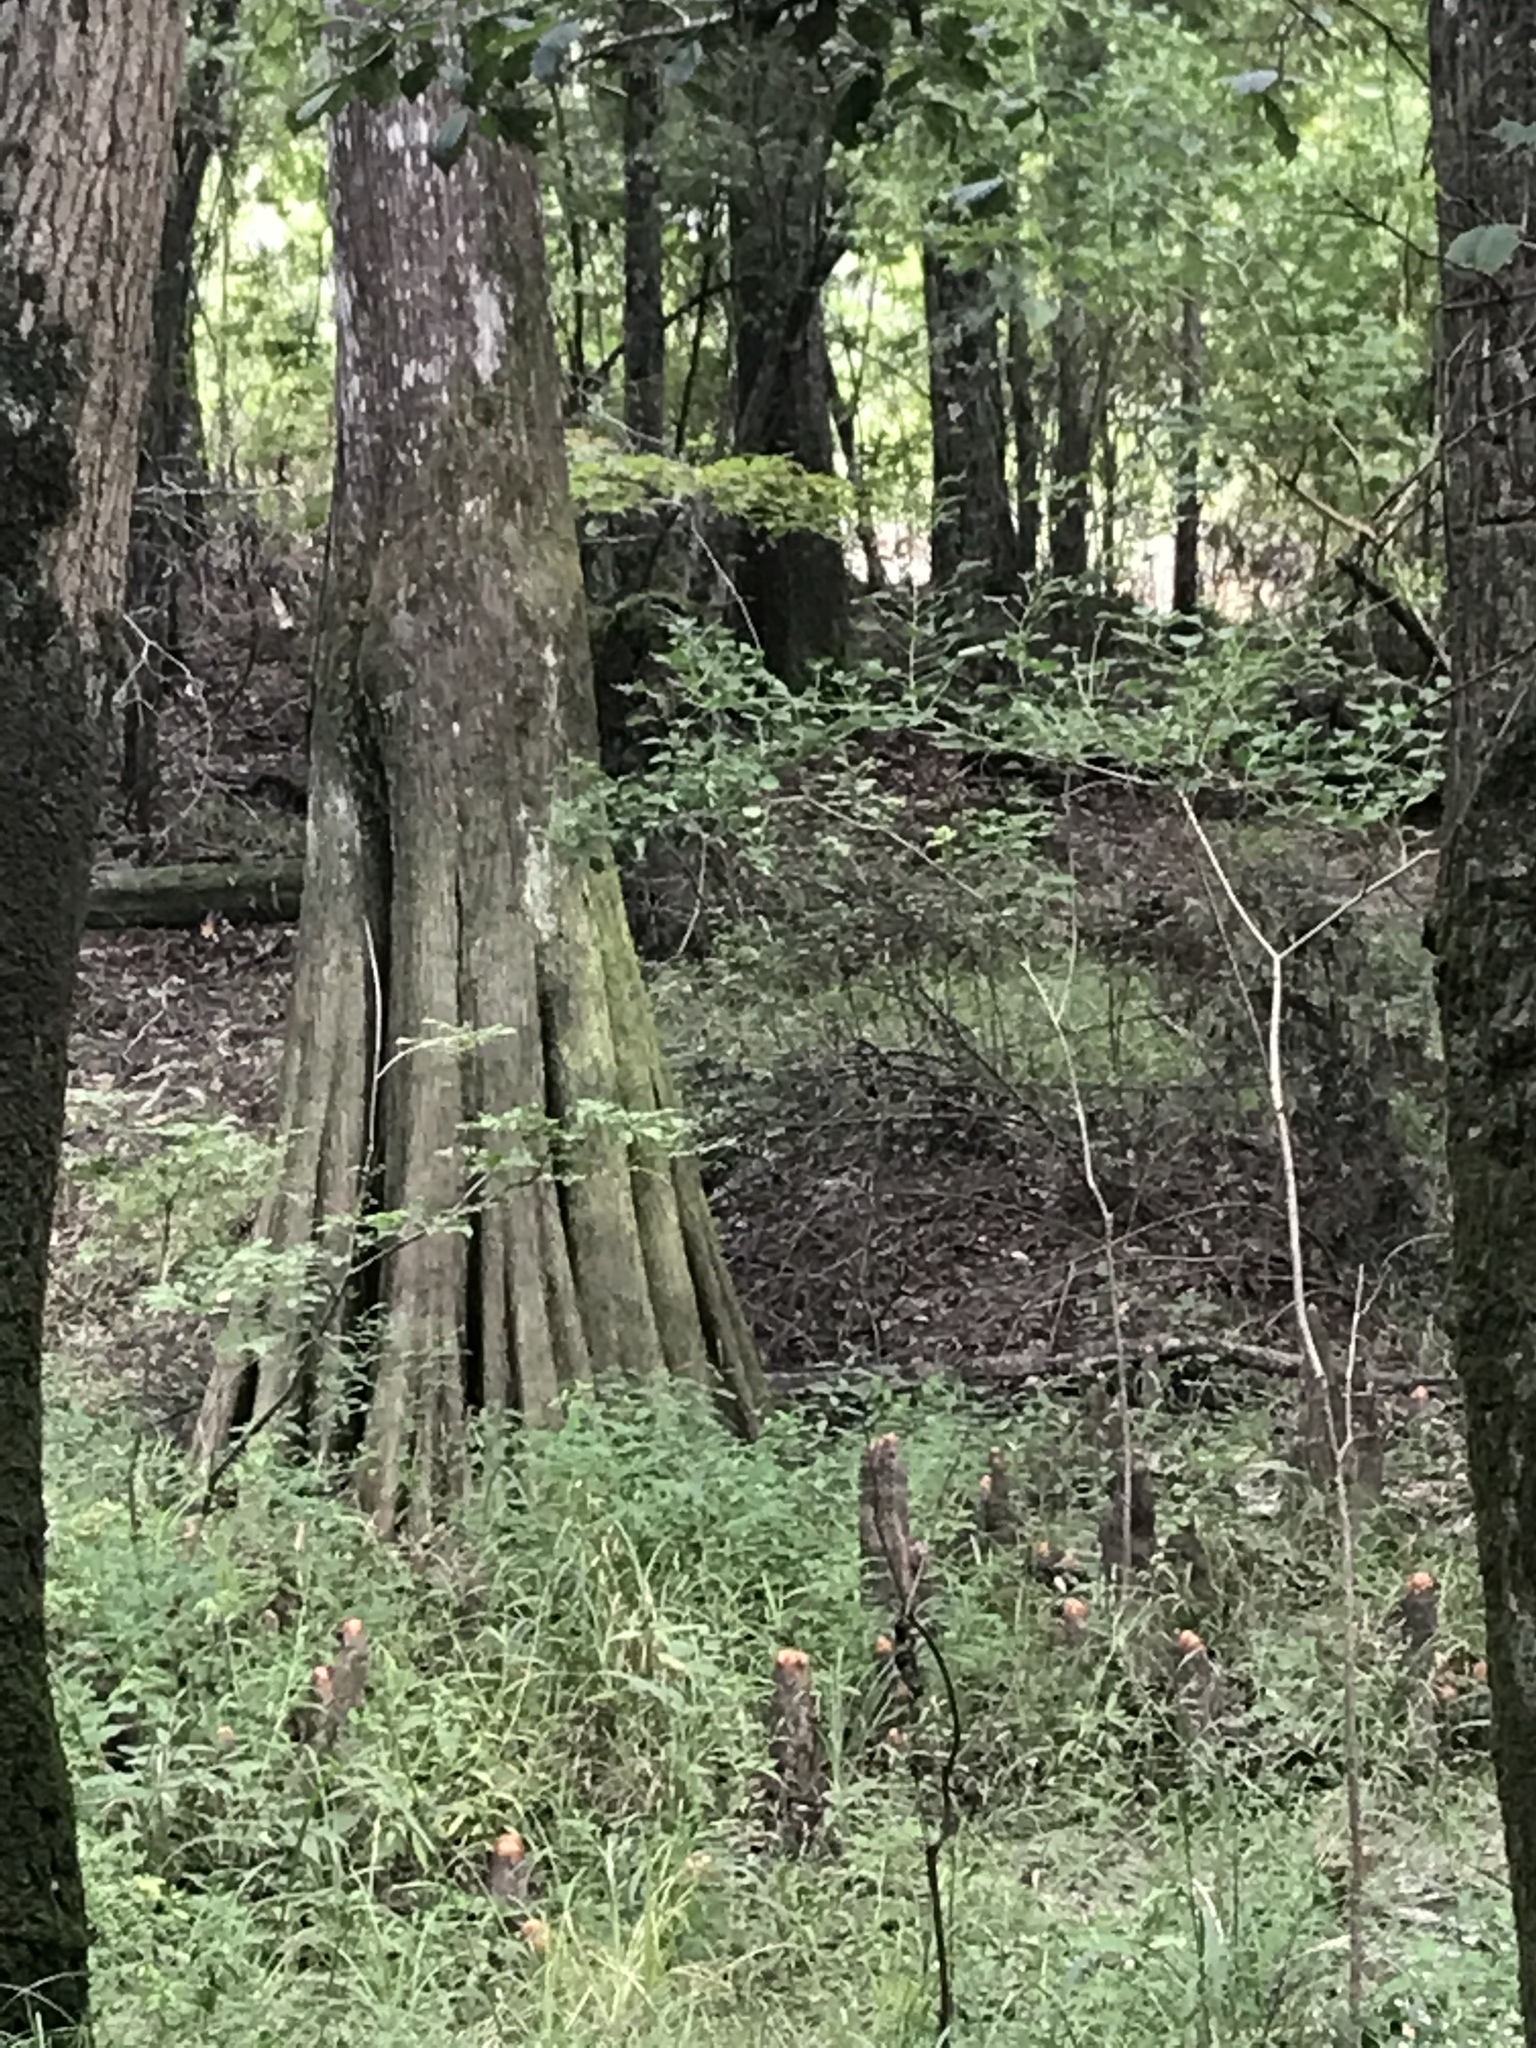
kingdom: Plantae
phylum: Tracheophyta
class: Pinopsida
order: Pinales
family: Cupressaceae
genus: Taxodium
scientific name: Taxodium distichum
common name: Bald cypress
